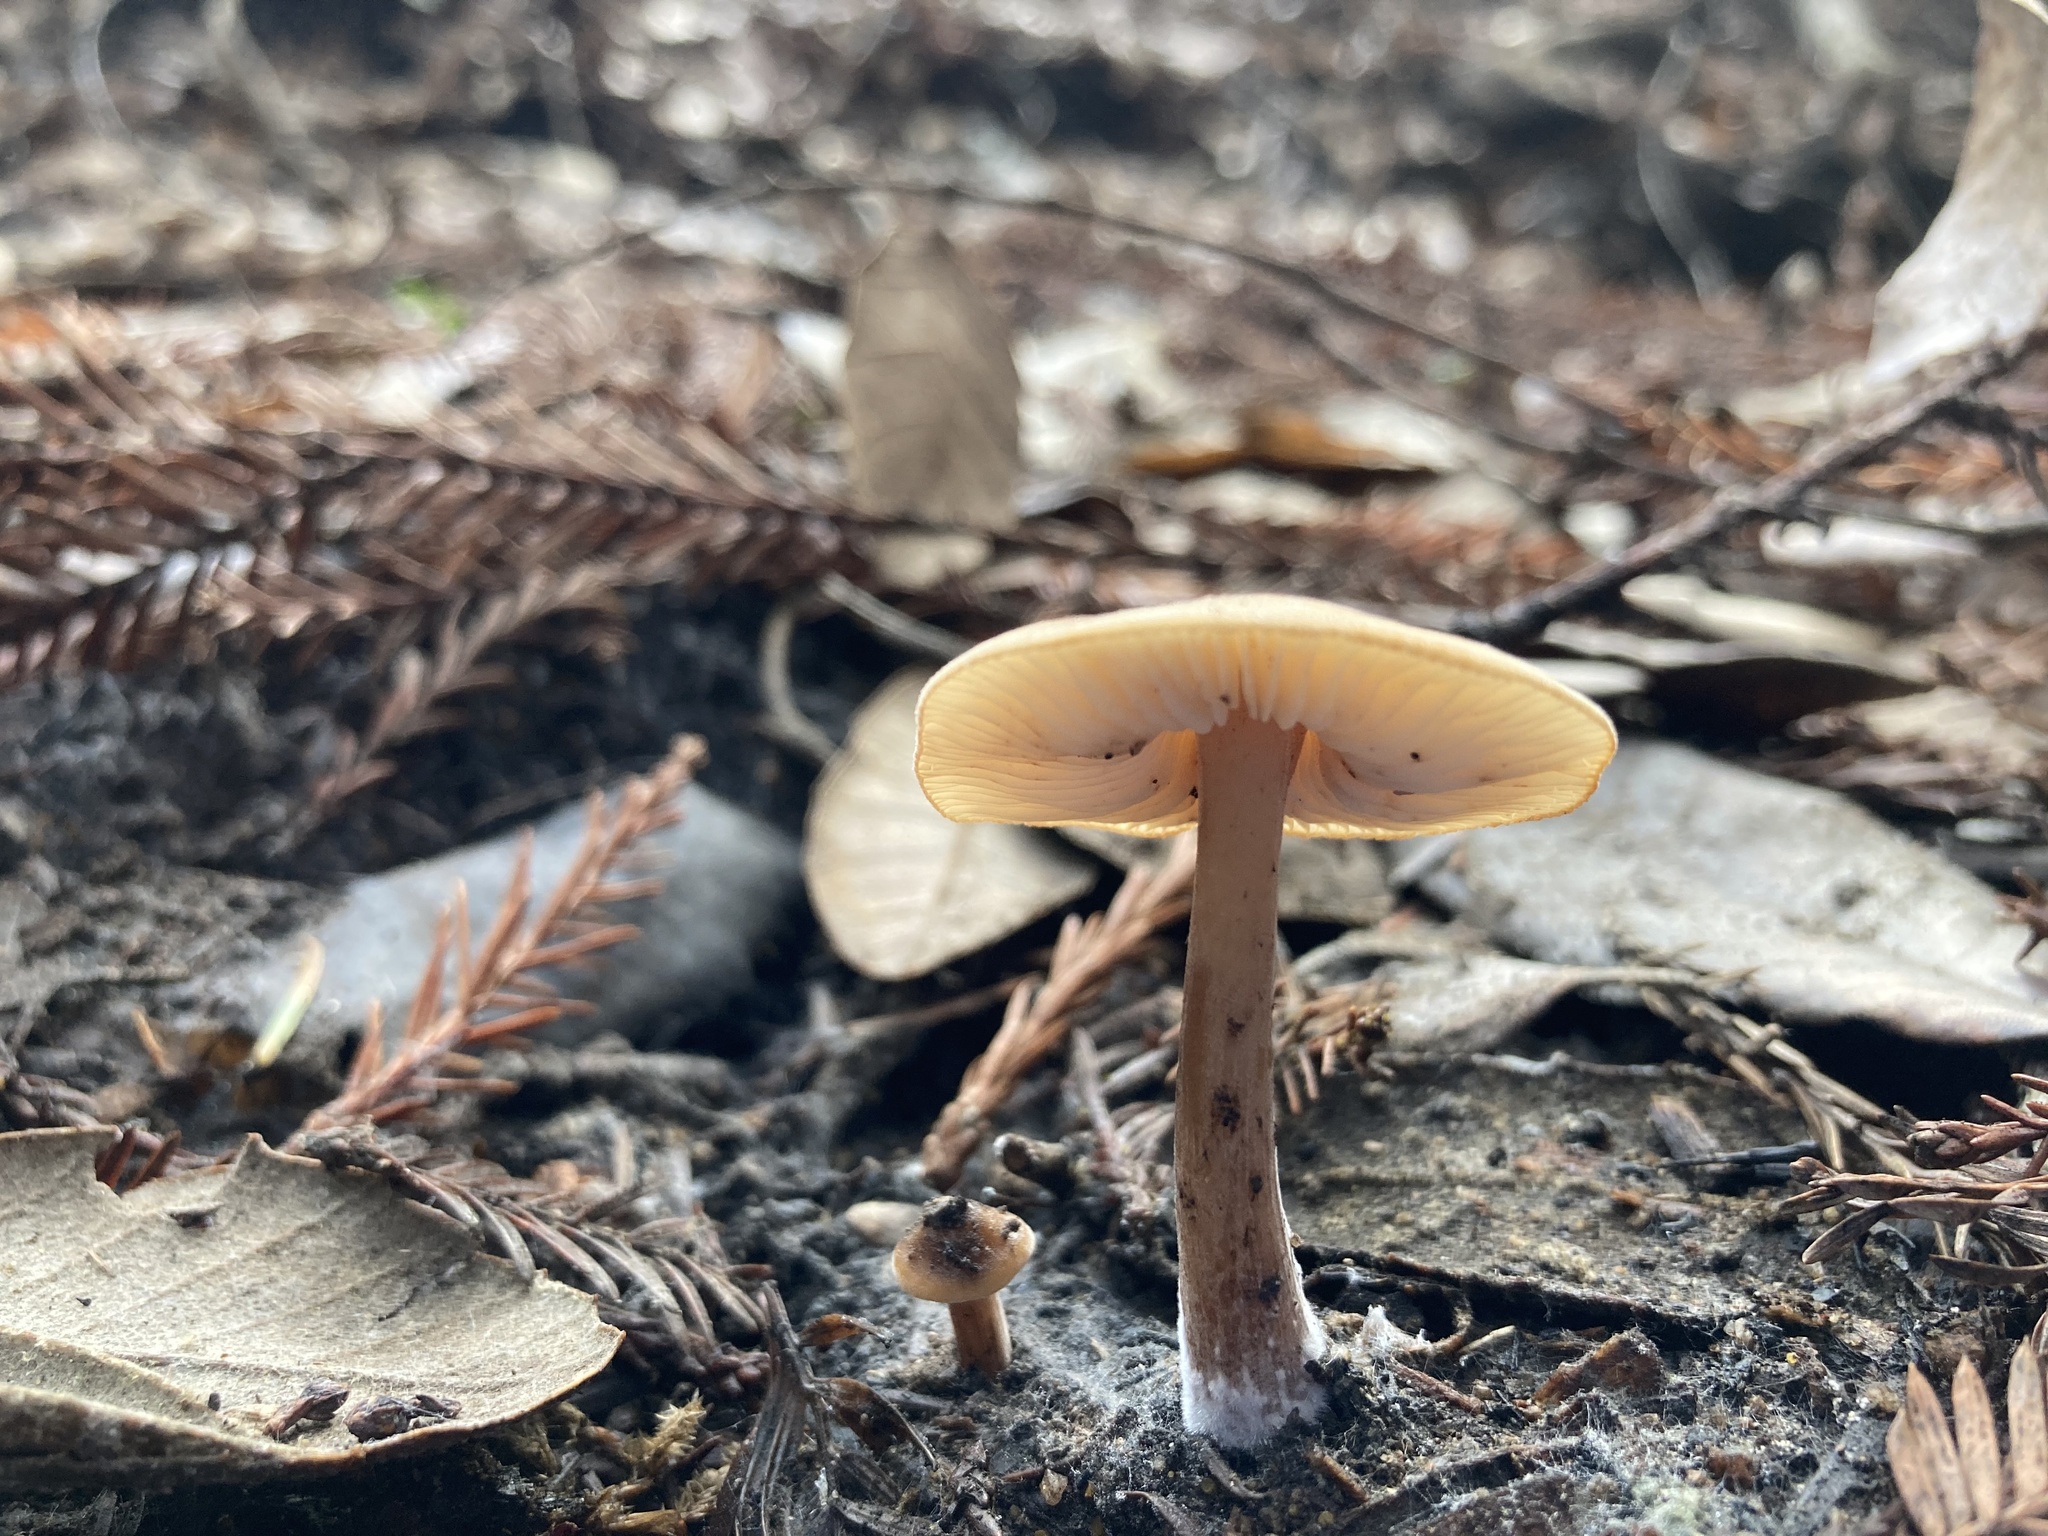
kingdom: Fungi
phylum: Basidiomycota
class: Agaricomycetes
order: Agaricales
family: Tricholomataceae
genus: Caulorhiza
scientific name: Caulorhiza umbonata
